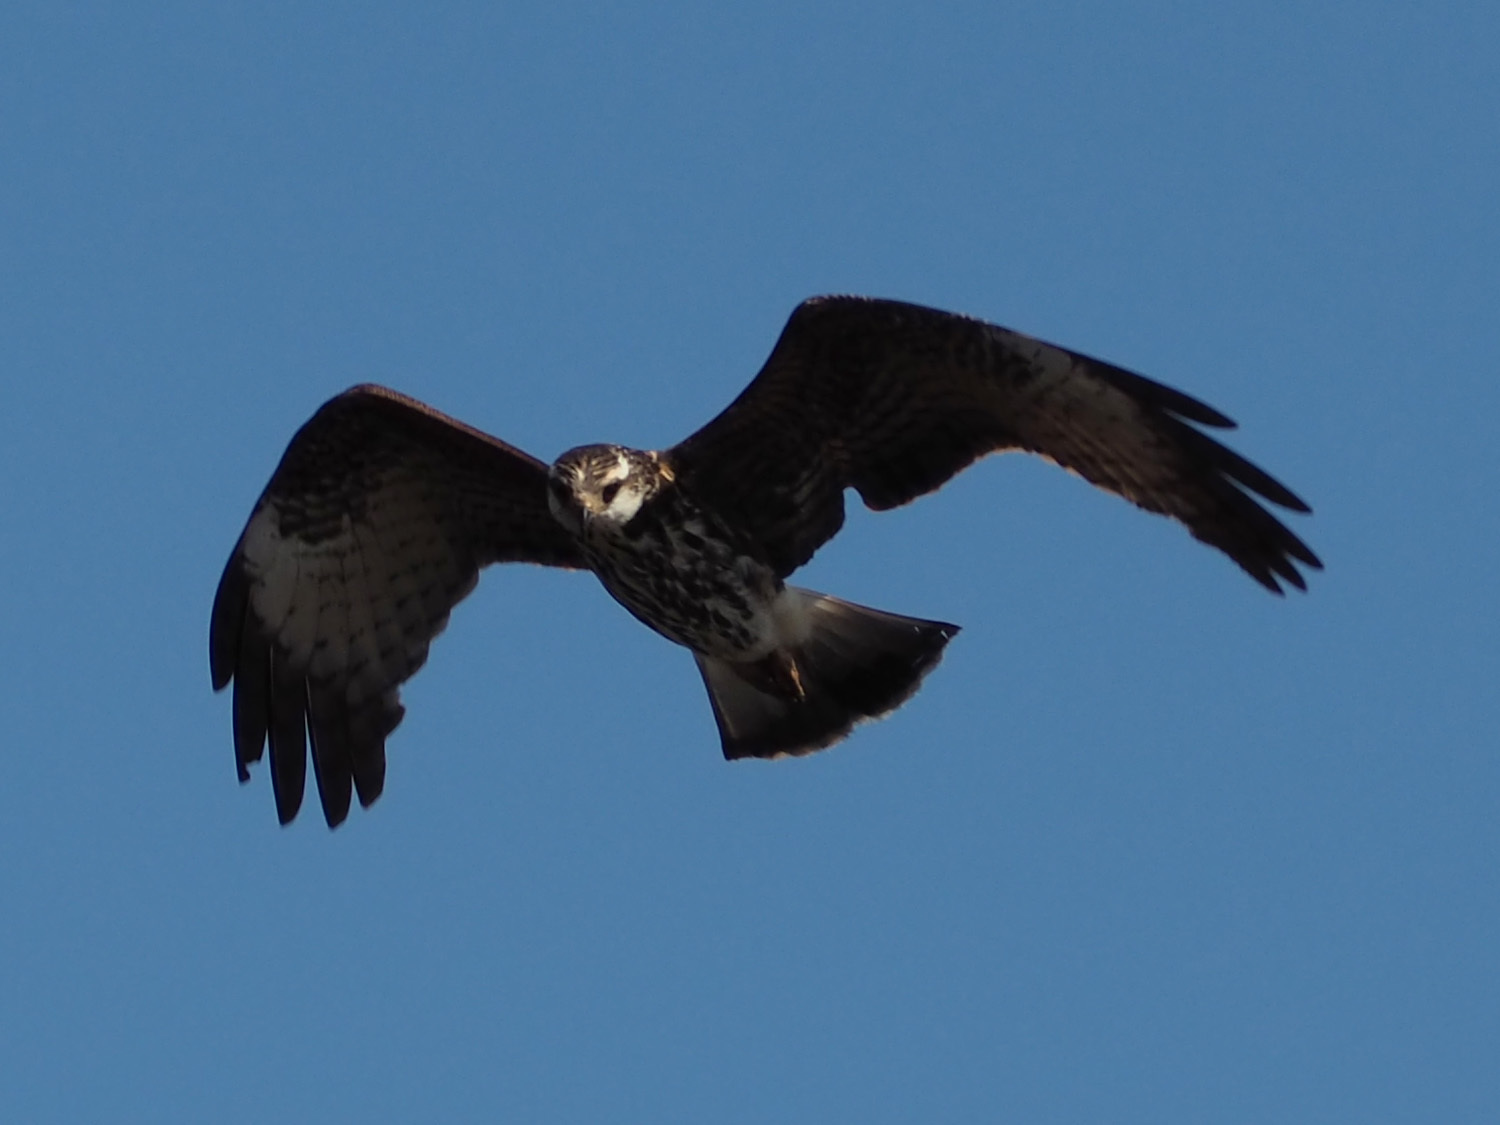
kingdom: Animalia
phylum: Chordata
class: Aves
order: Accipitriformes
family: Accipitridae
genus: Rostrhamus
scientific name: Rostrhamus sociabilis
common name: Snail kite
